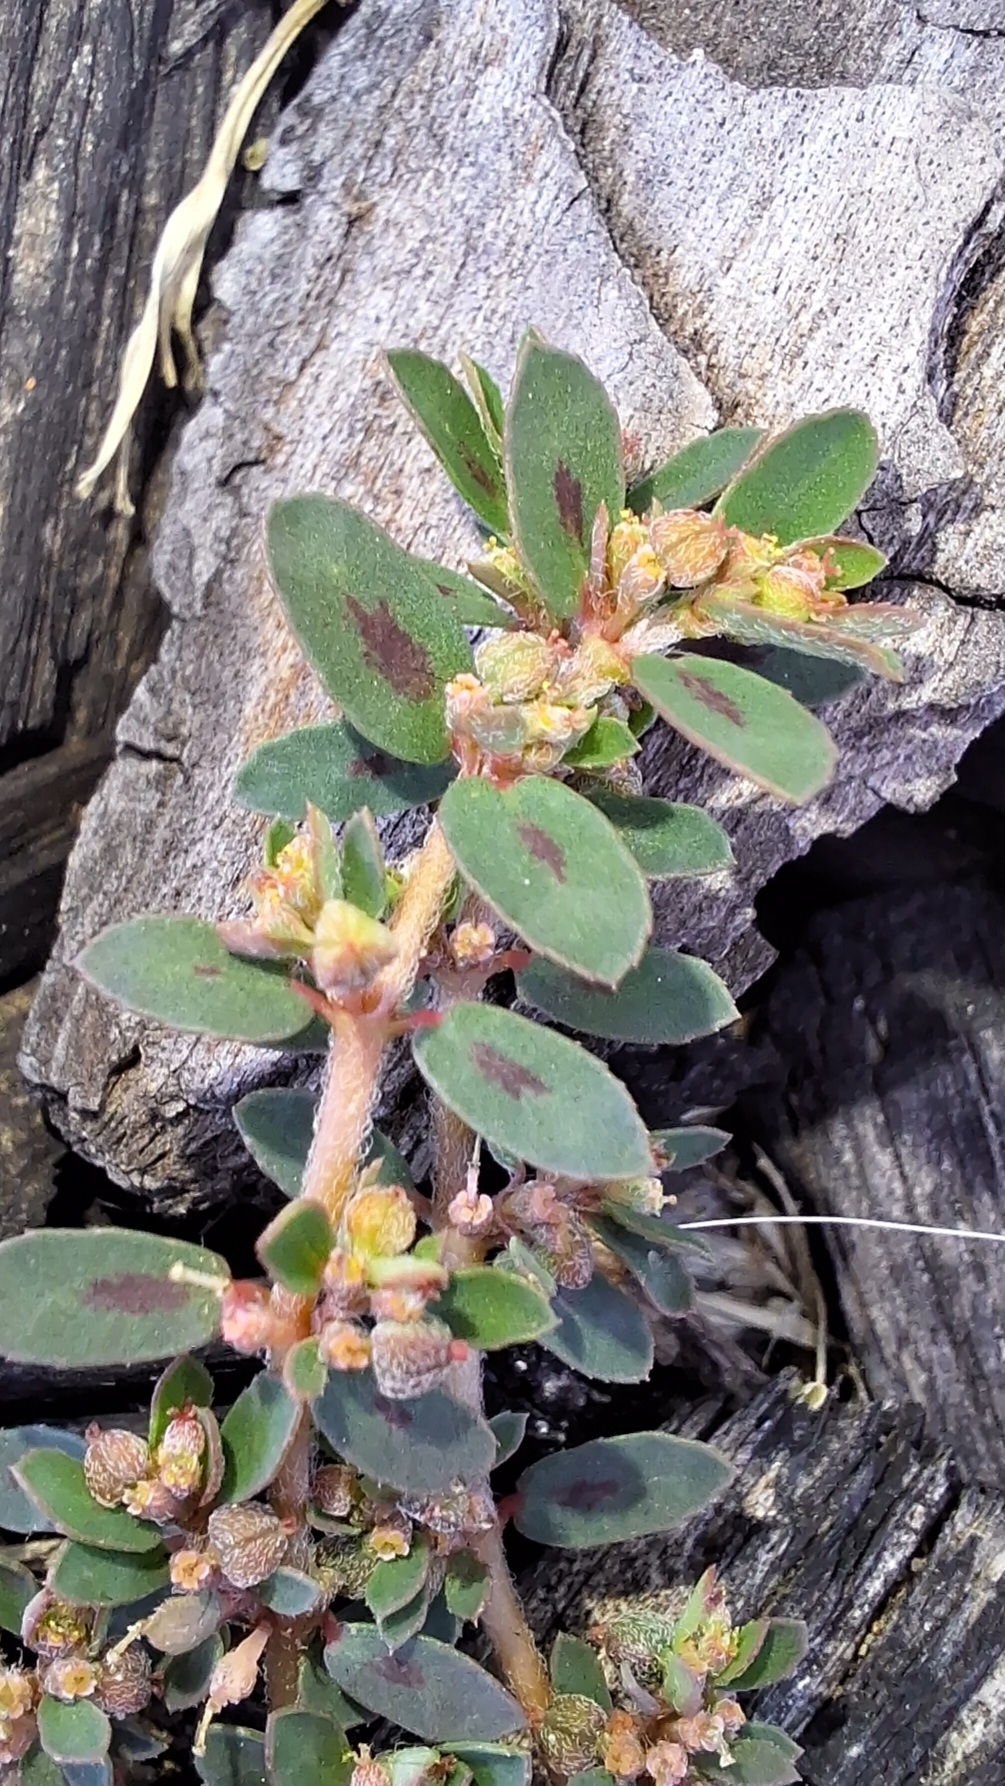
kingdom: Plantae
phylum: Tracheophyta
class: Magnoliopsida
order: Malpighiales
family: Euphorbiaceae
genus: Euphorbia
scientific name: Euphorbia maculata
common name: Spotted spurge
